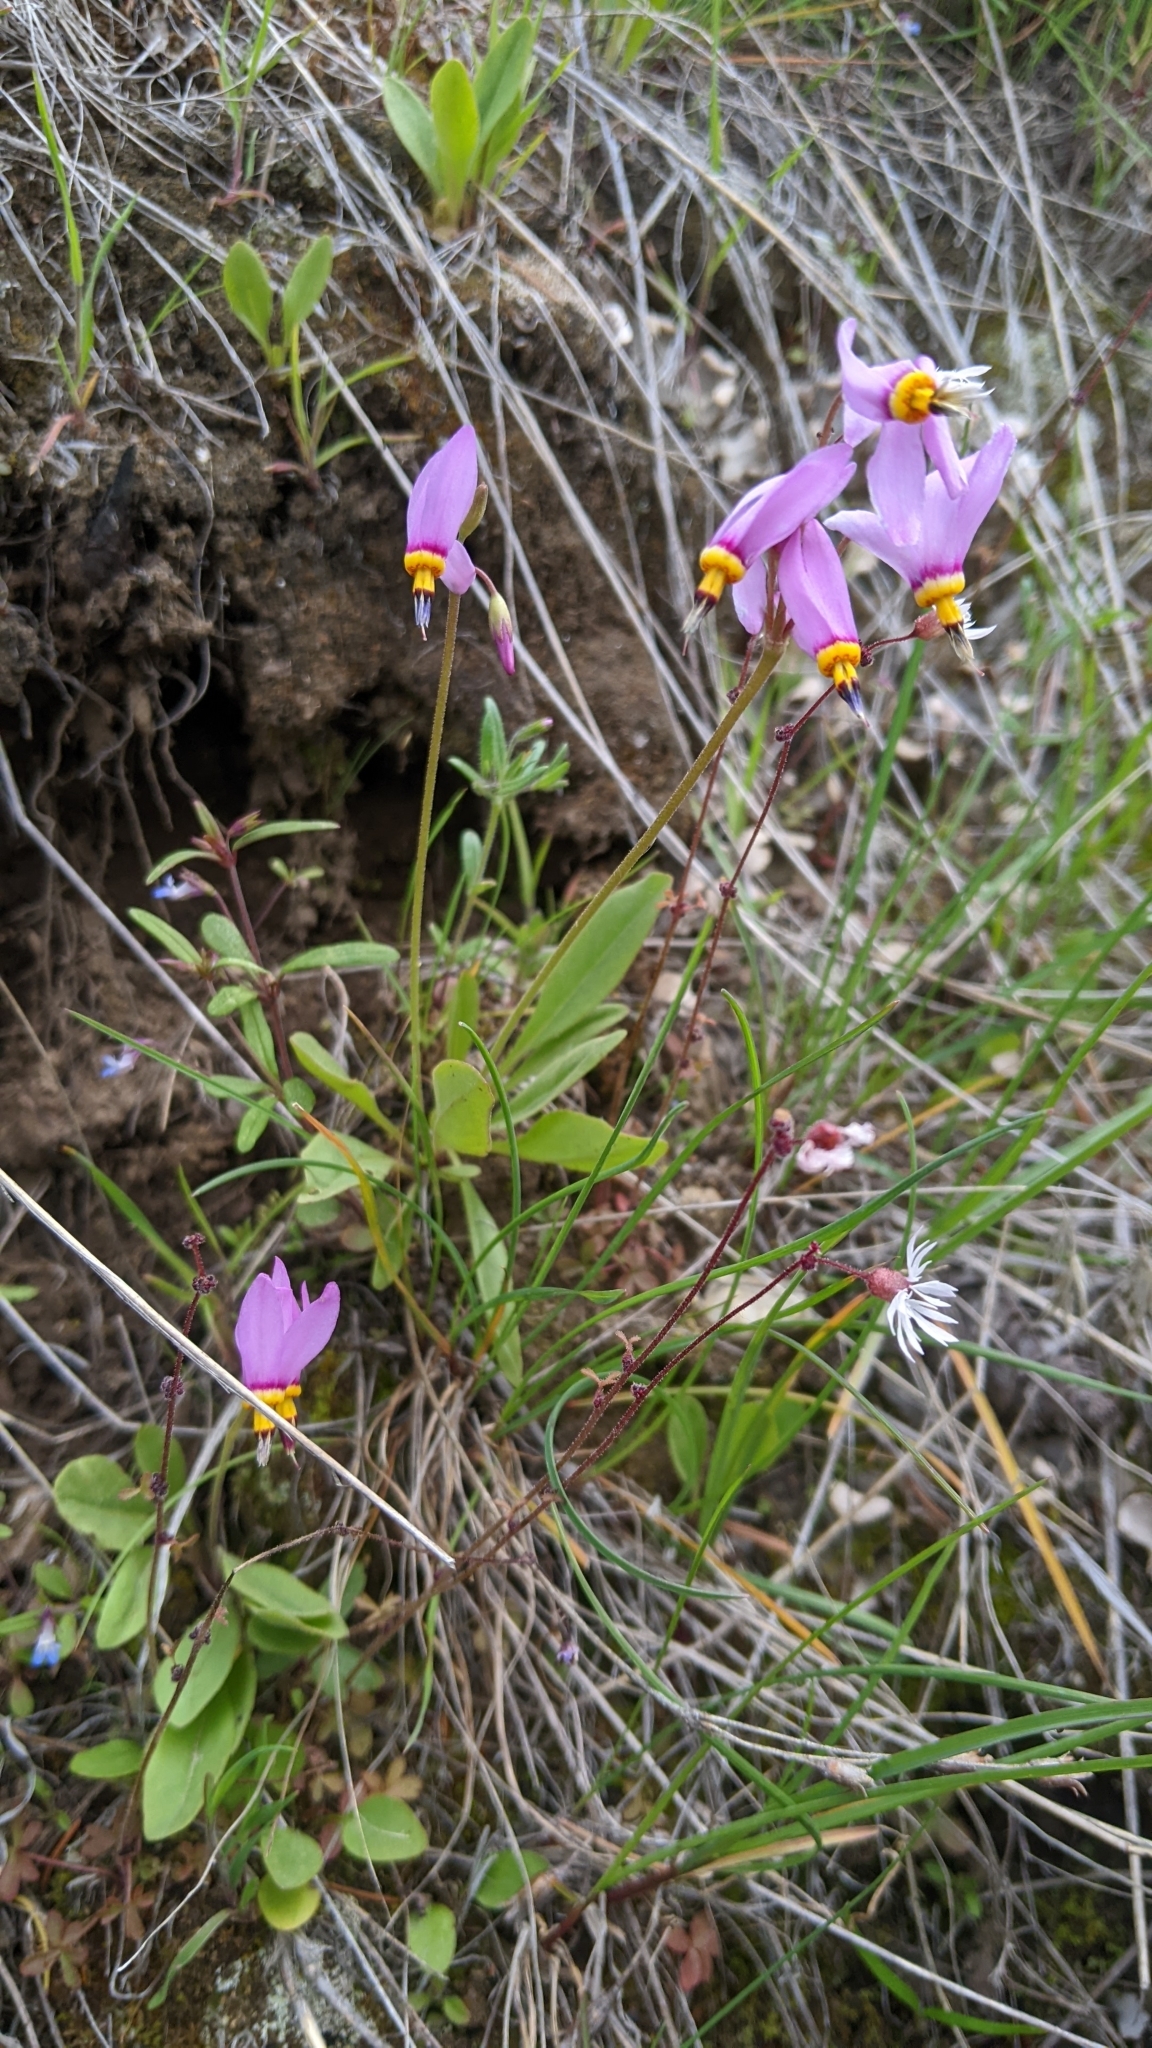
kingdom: Plantae
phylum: Tracheophyta
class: Magnoliopsida
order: Ericales
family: Primulaceae
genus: Dodecatheon
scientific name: Dodecatheon pulchellum
